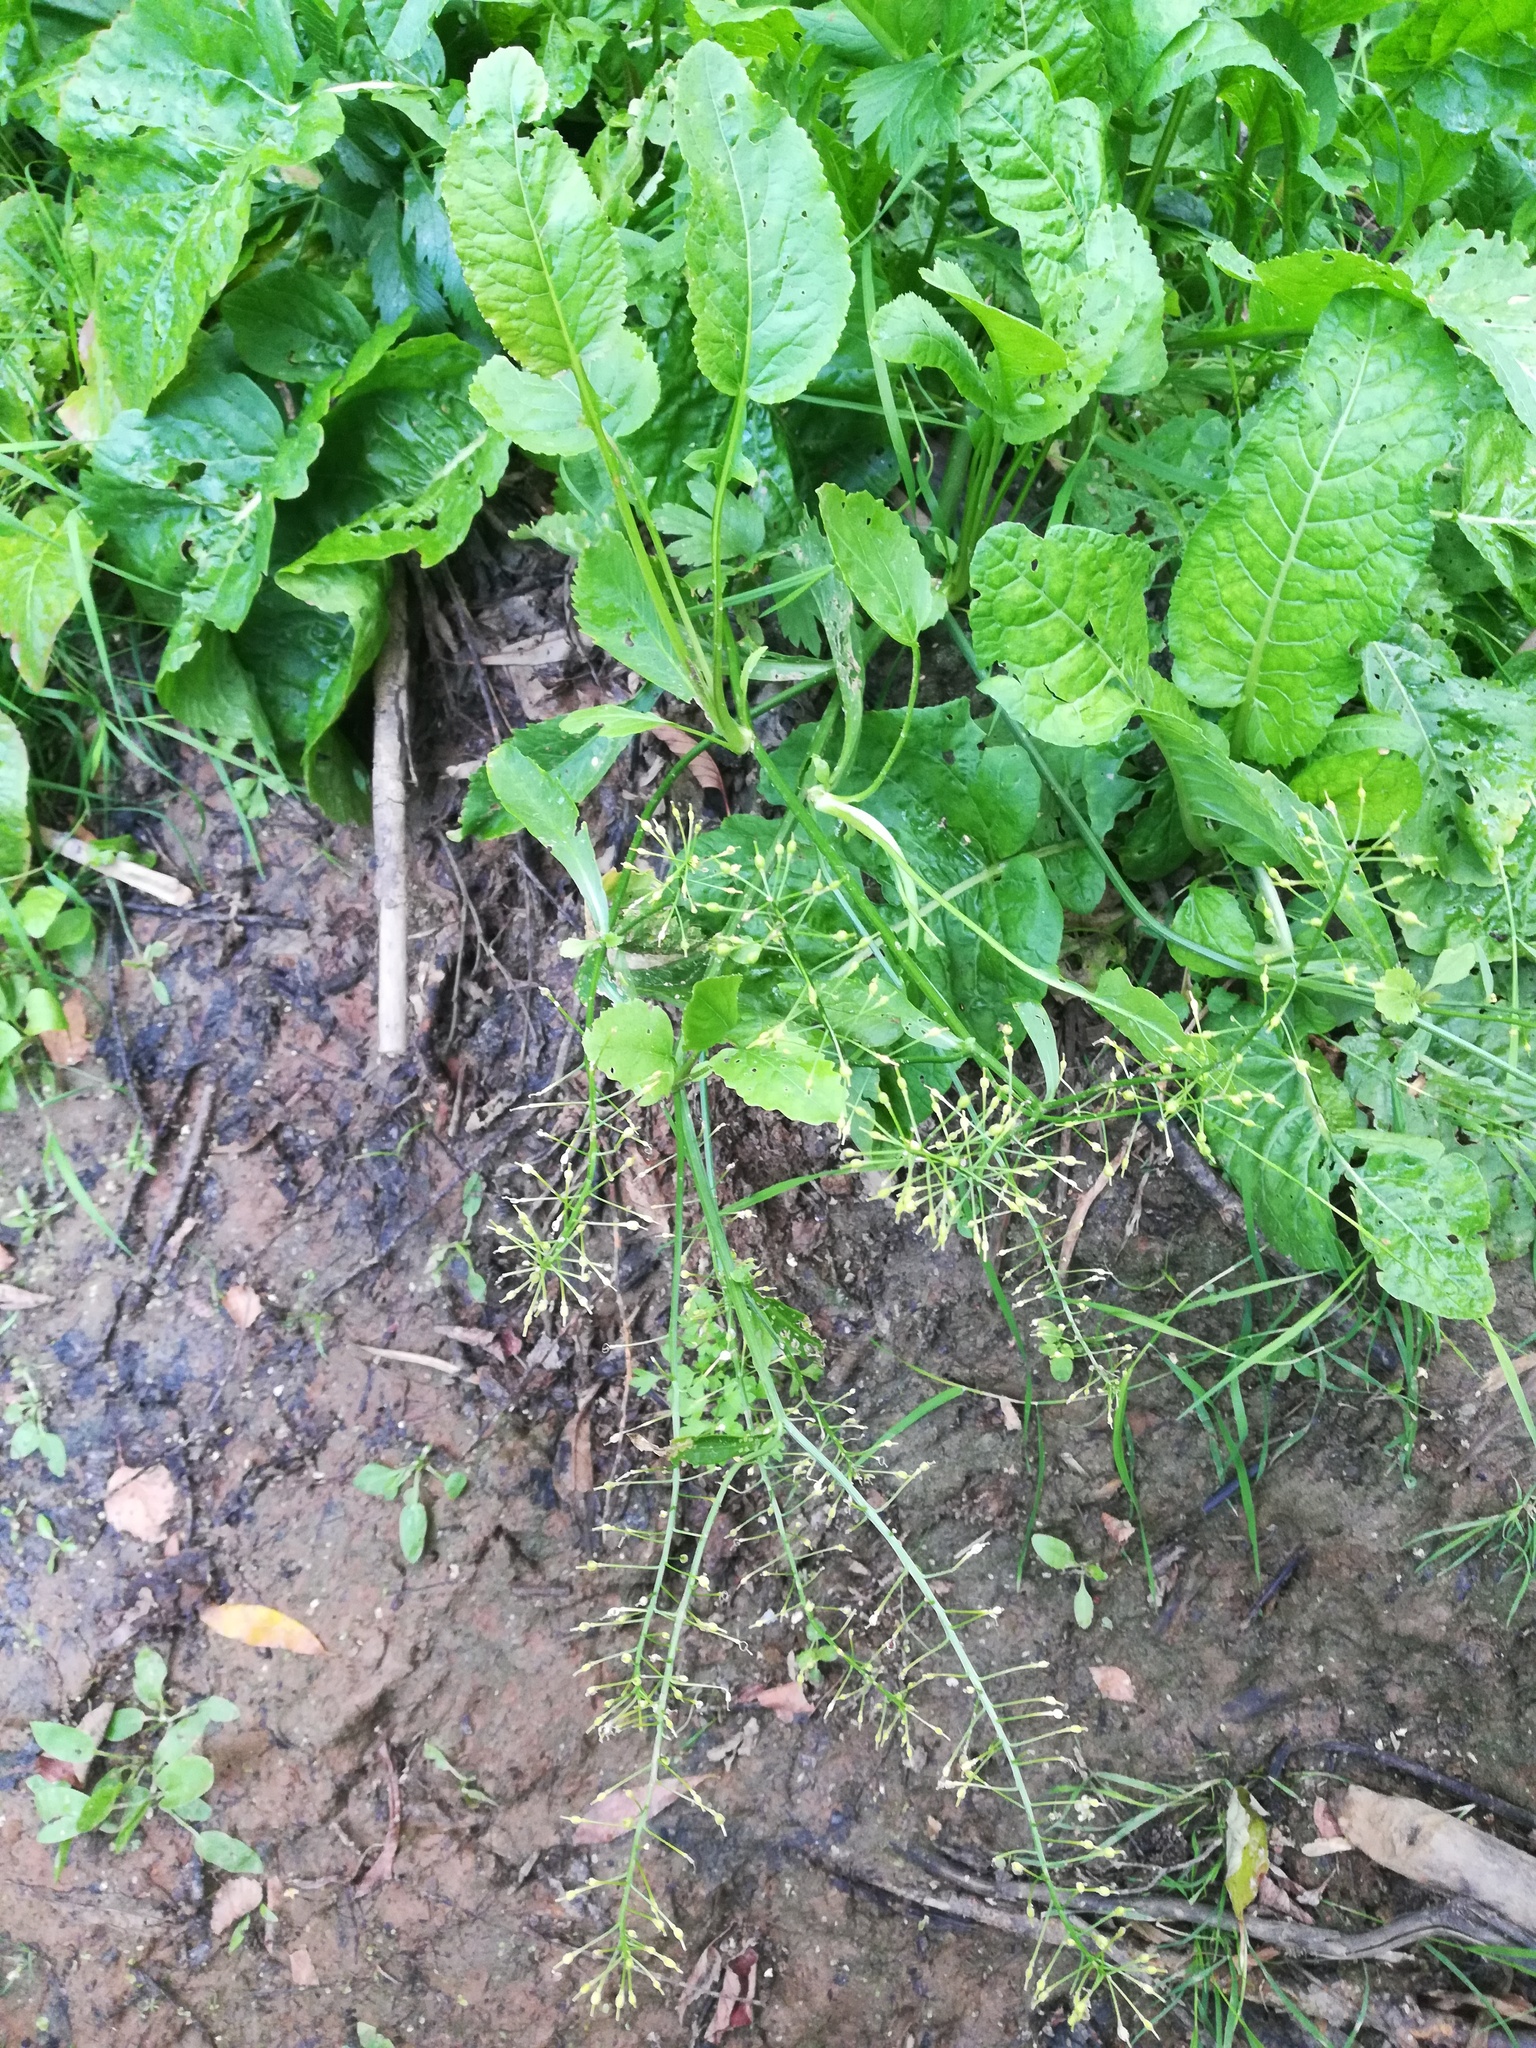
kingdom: Plantae
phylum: Tracheophyta
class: Magnoliopsida
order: Brassicales
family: Brassicaceae
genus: Rorippa
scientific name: Rorippa amphibia
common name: Great yellow-cress
